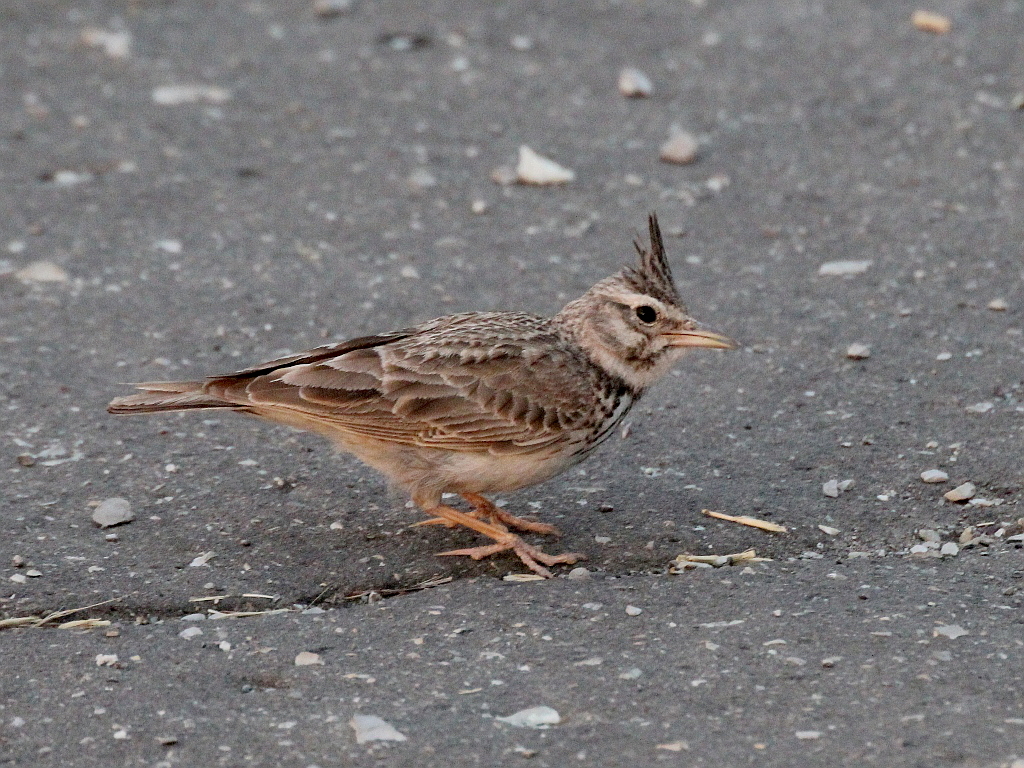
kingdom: Animalia
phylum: Chordata
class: Aves
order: Passeriformes
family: Alaudidae
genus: Galerida
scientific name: Galerida cristata
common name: Crested lark
